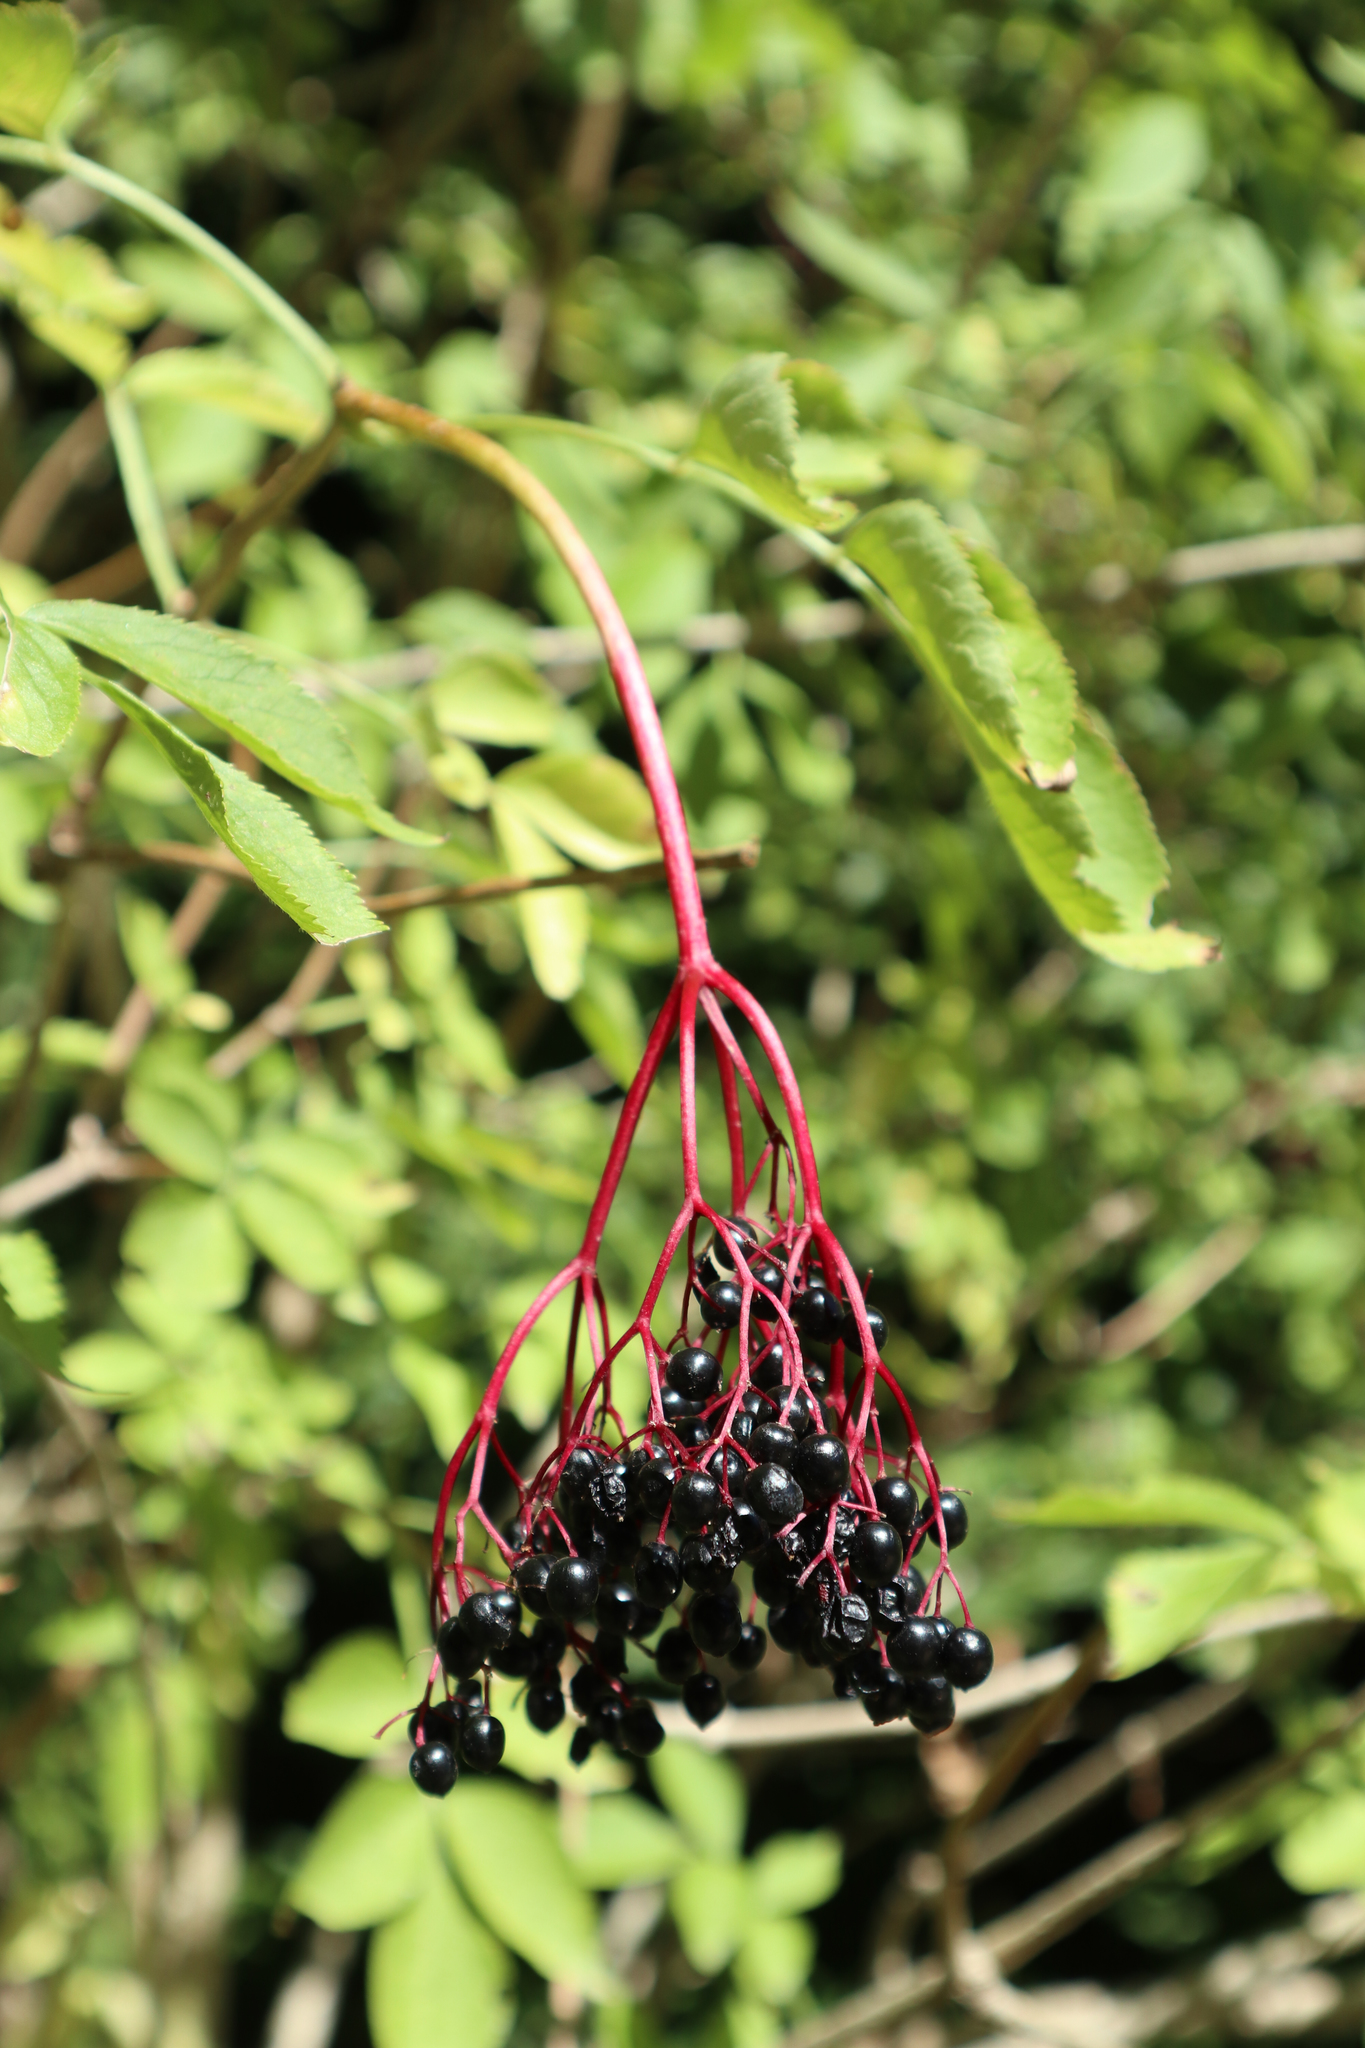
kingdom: Plantae
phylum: Tracheophyta
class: Magnoliopsida
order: Dipsacales
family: Viburnaceae
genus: Sambucus
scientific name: Sambucus nigra
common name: Elder
